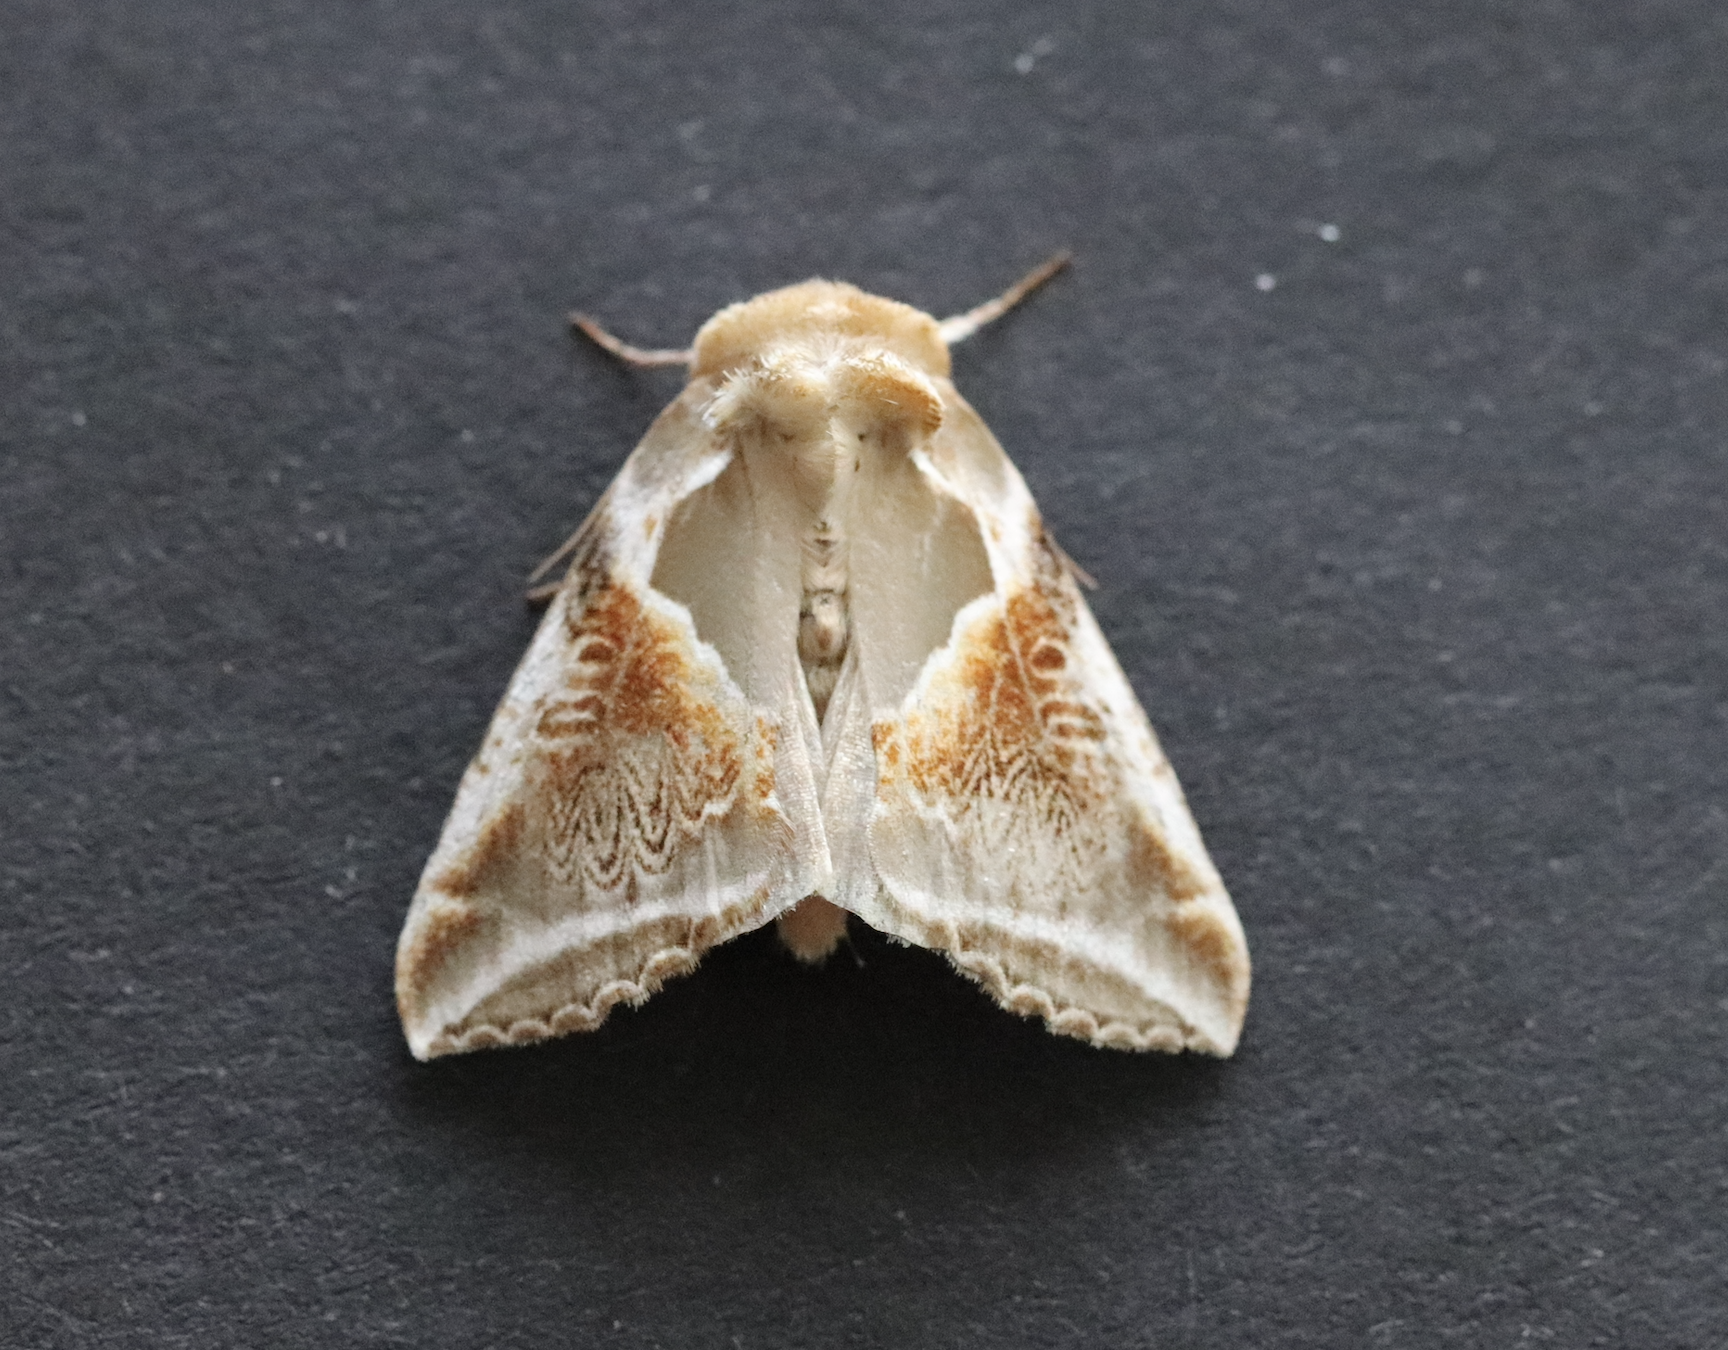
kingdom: Animalia
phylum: Arthropoda
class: Insecta
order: Lepidoptera
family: Drepanidae
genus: Habrosyne
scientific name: Habrosyne pyritoides
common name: Buff arches
